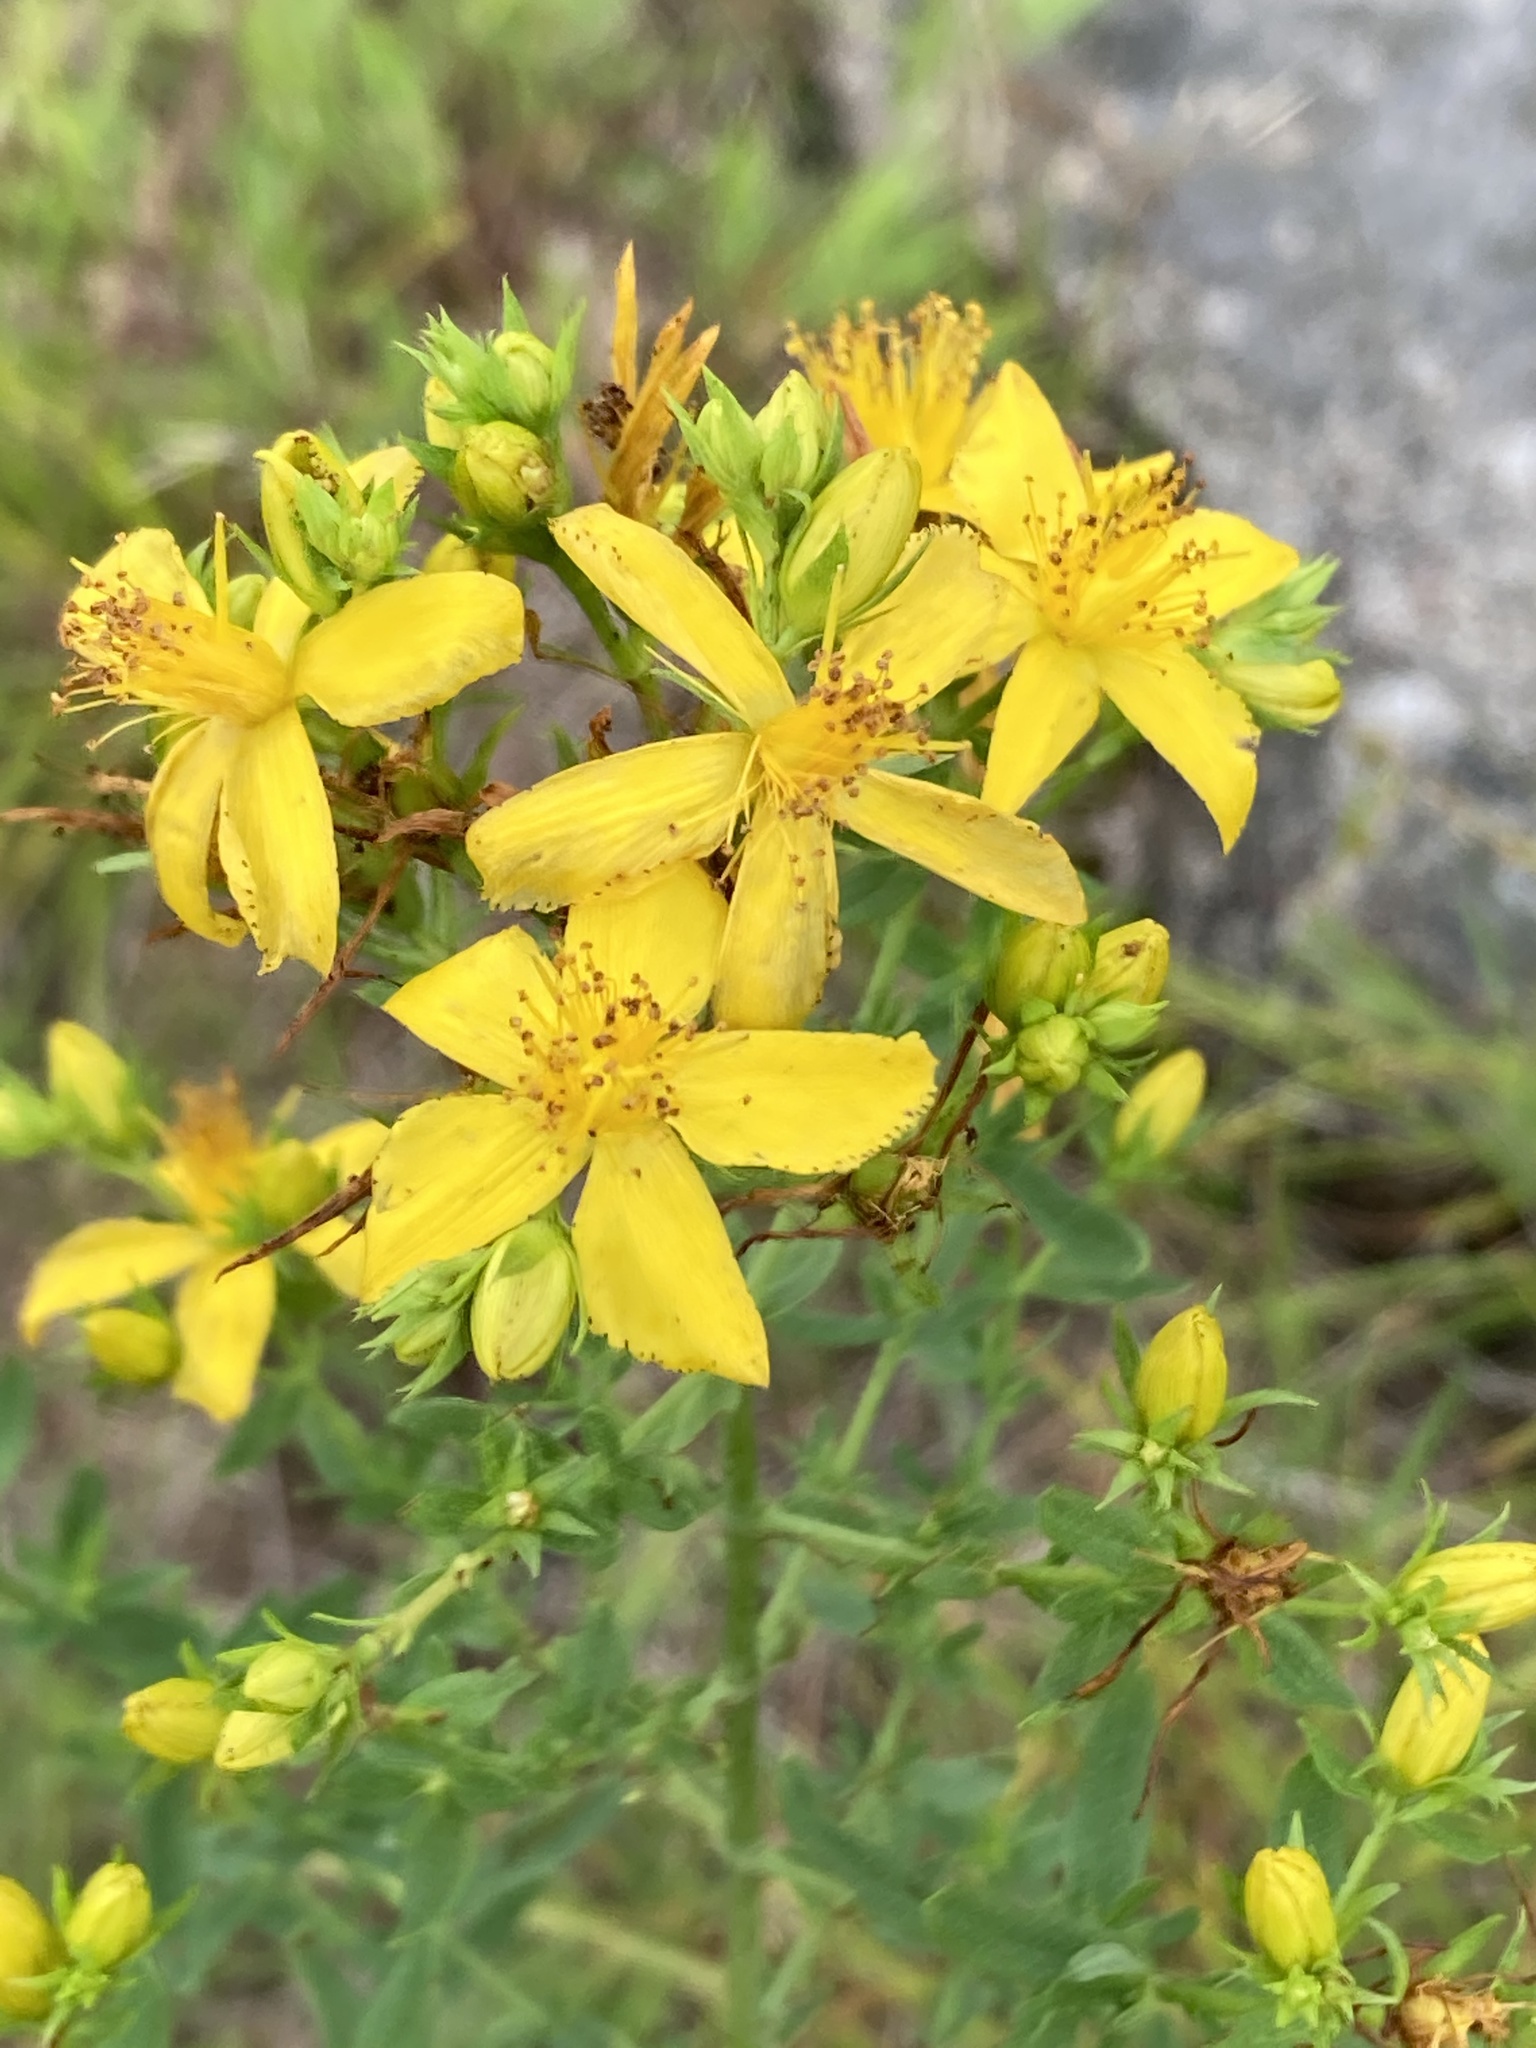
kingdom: Plantae
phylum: Tracheophyta
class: Magnoliopsida
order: Malpighiales
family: Hypericaceae
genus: Hypericum
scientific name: Hypericum perforatum
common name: Common st. johnswort
